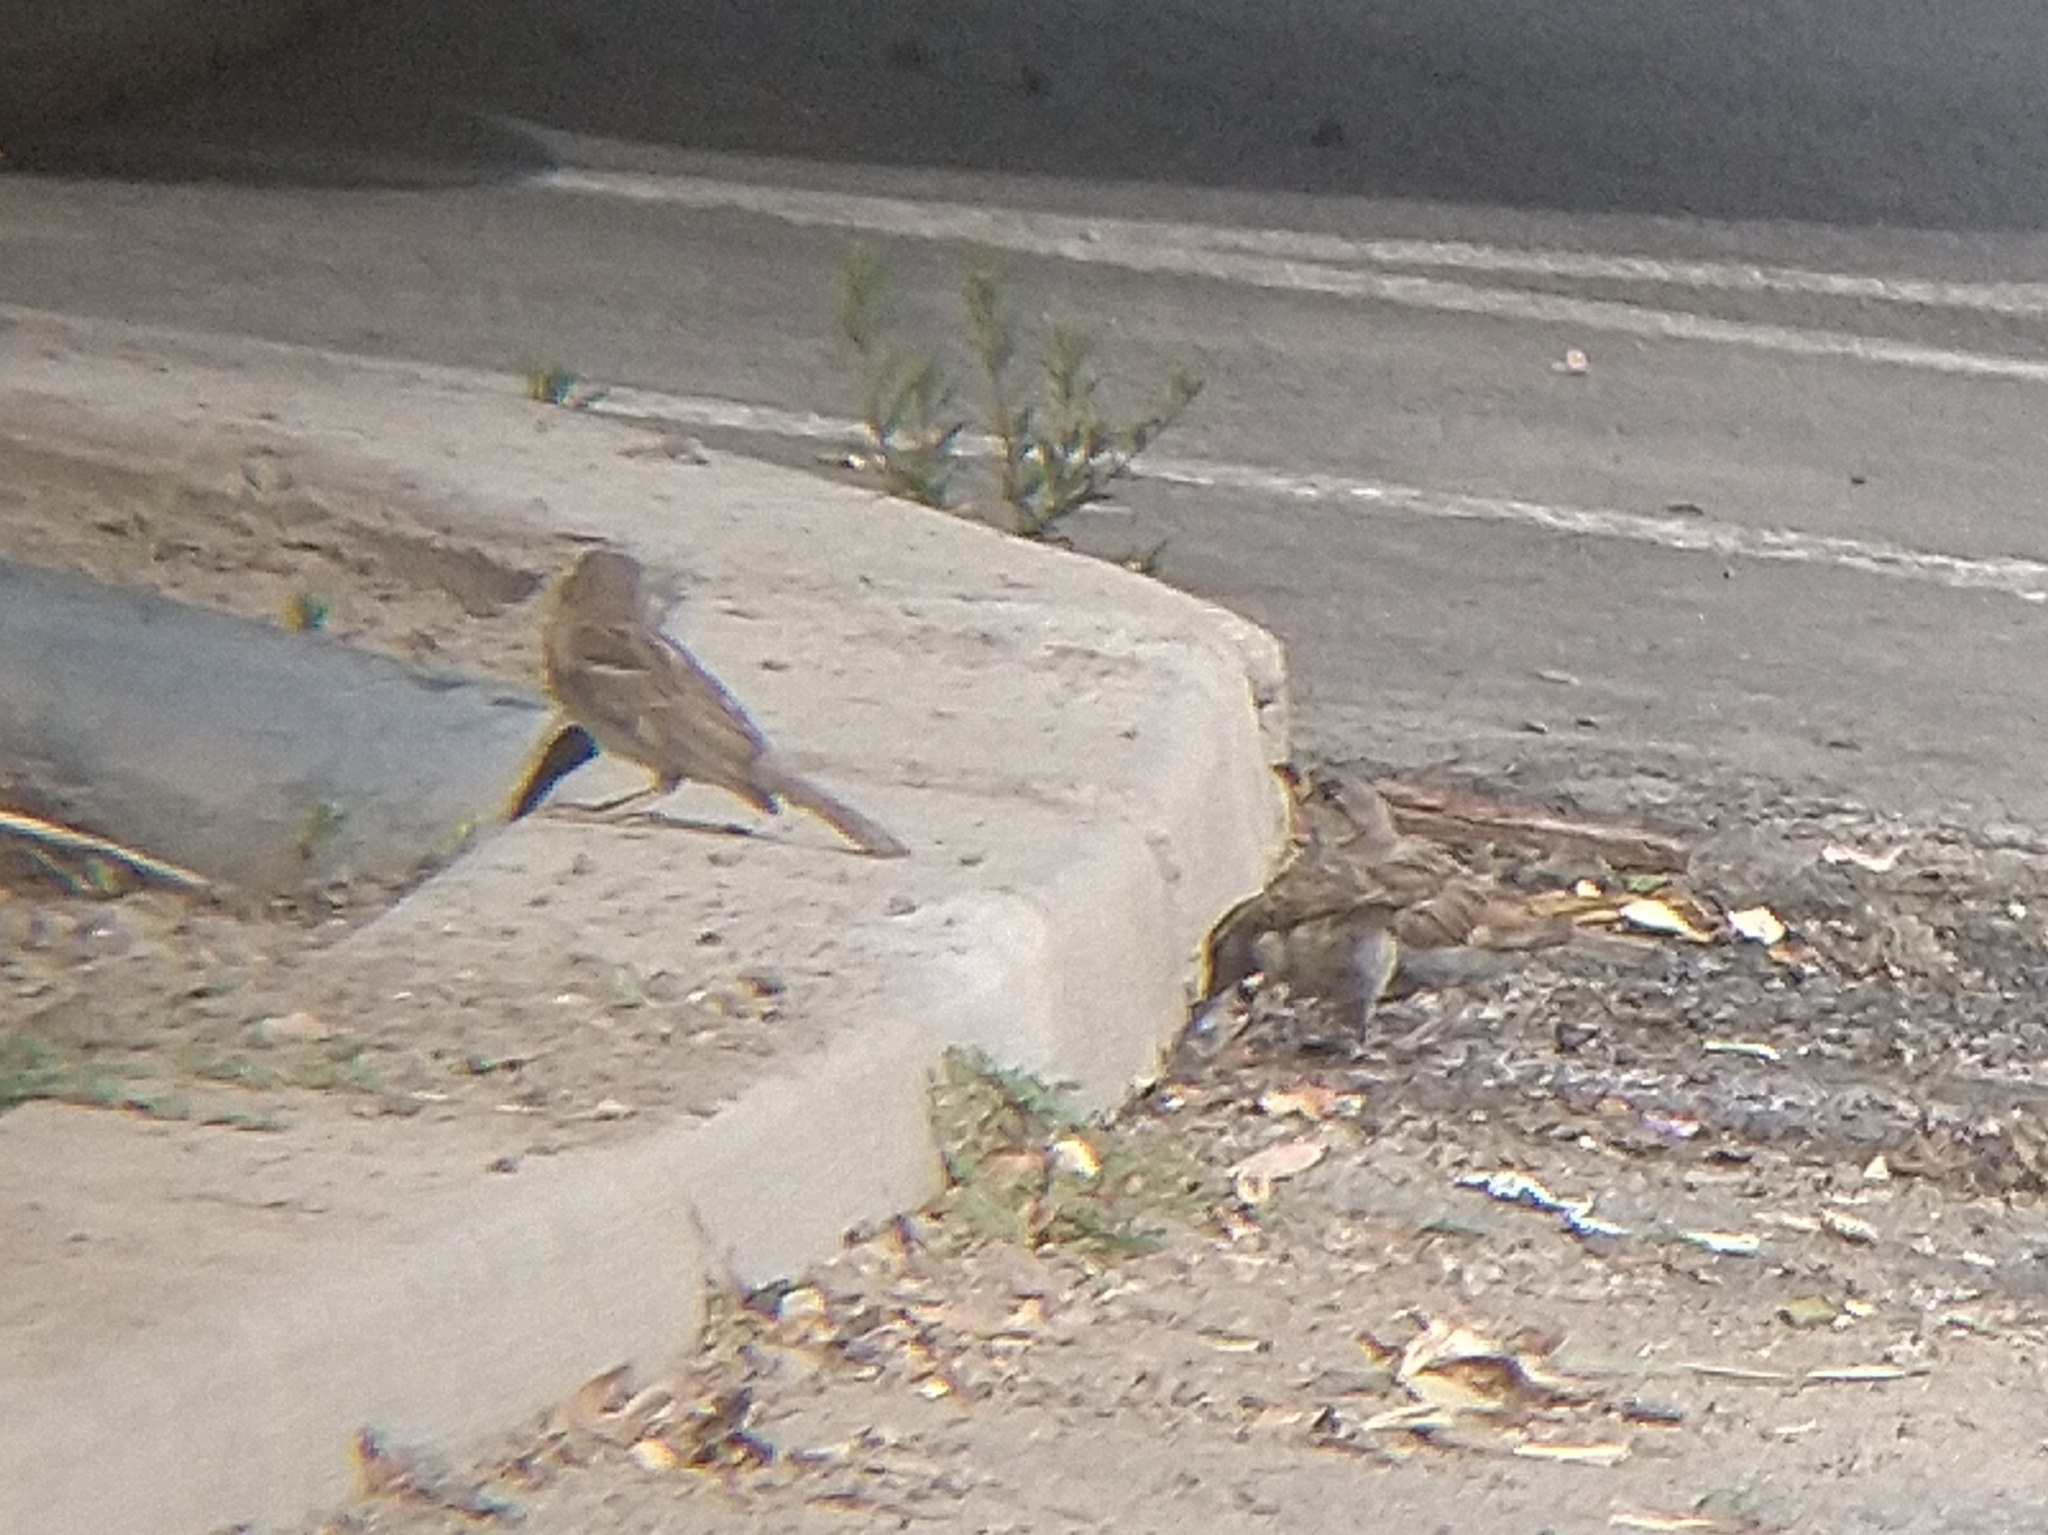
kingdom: Animalia
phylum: Chordata
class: Aves
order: Passeriformes
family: Passeridae
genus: Passer
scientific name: Passer domesticus
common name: House sparrow
